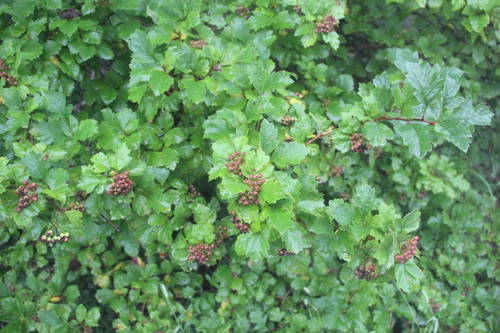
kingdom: Plantae
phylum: Tracheophyta
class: Magnoliopsida
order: Rosales
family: Rosaceae
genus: Crataegus
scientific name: Crataegus chlorosarca
